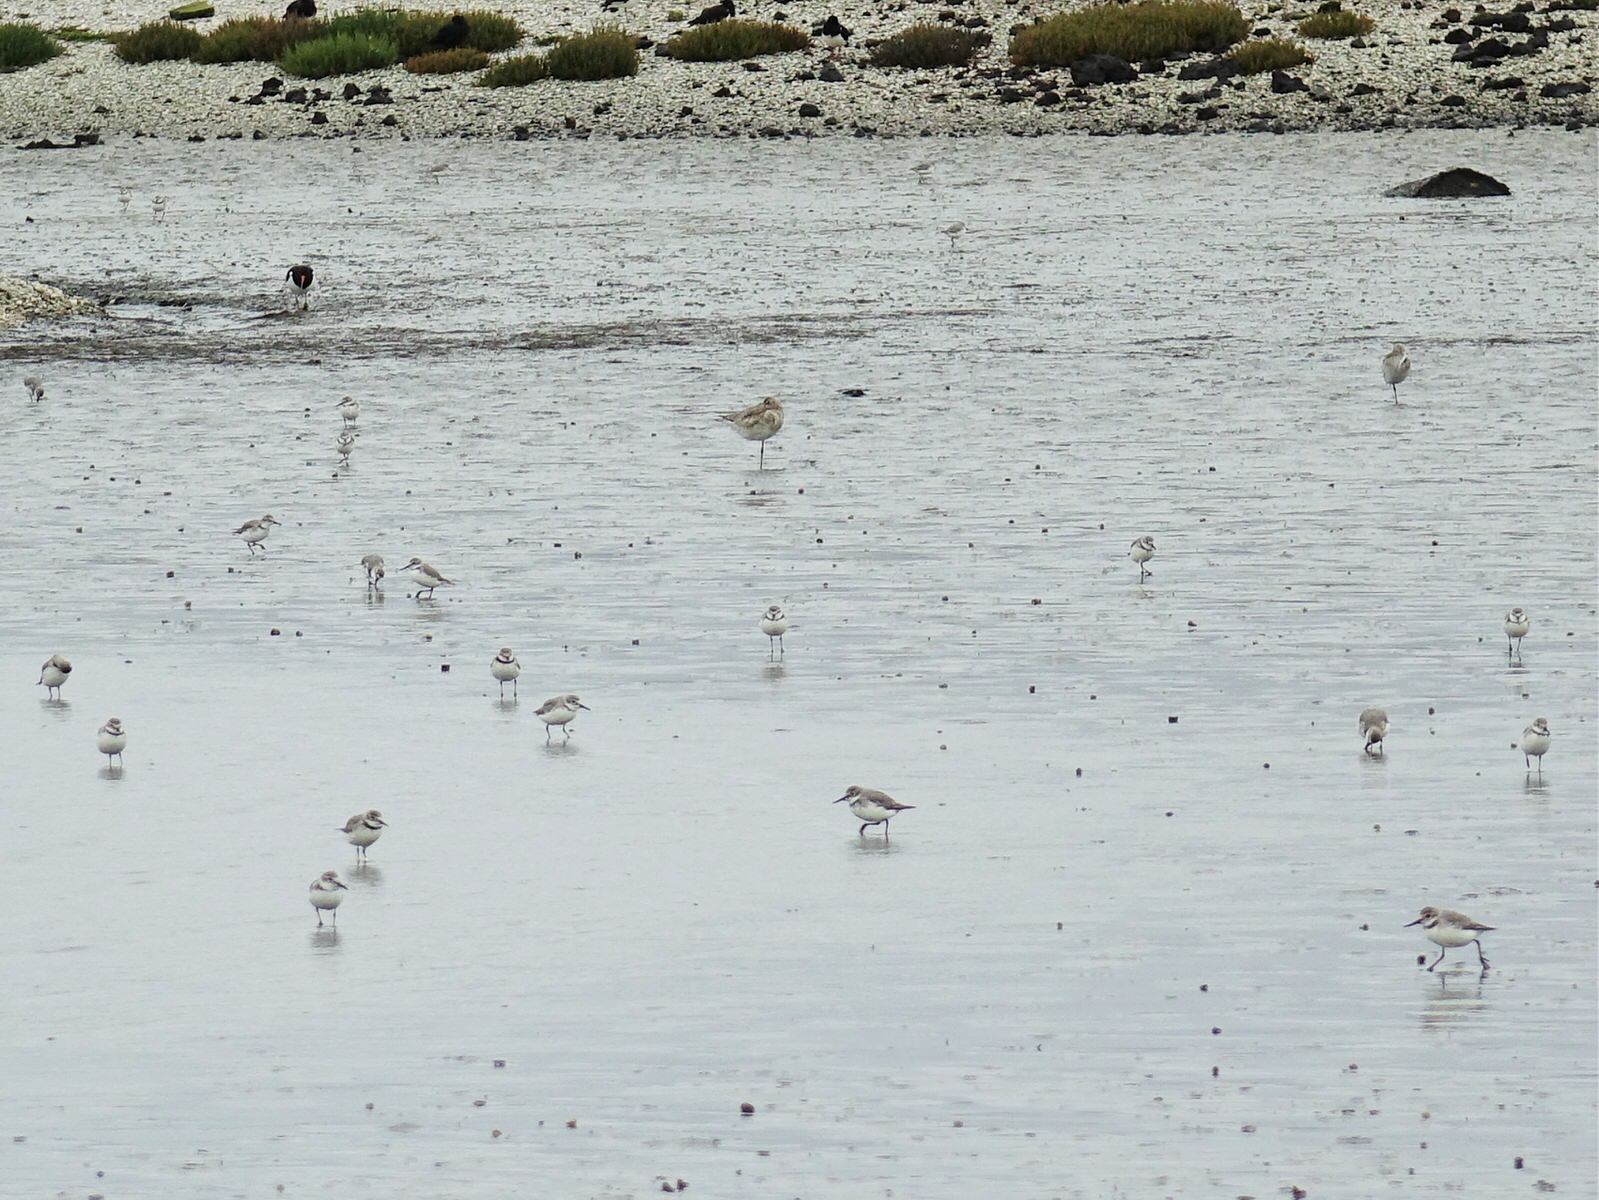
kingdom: Animalia
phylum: Chordata
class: Aves
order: Charadriiformes
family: Charadriidae
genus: Anarhynchus
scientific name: Anarhynchus frontalis
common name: Wrybill
